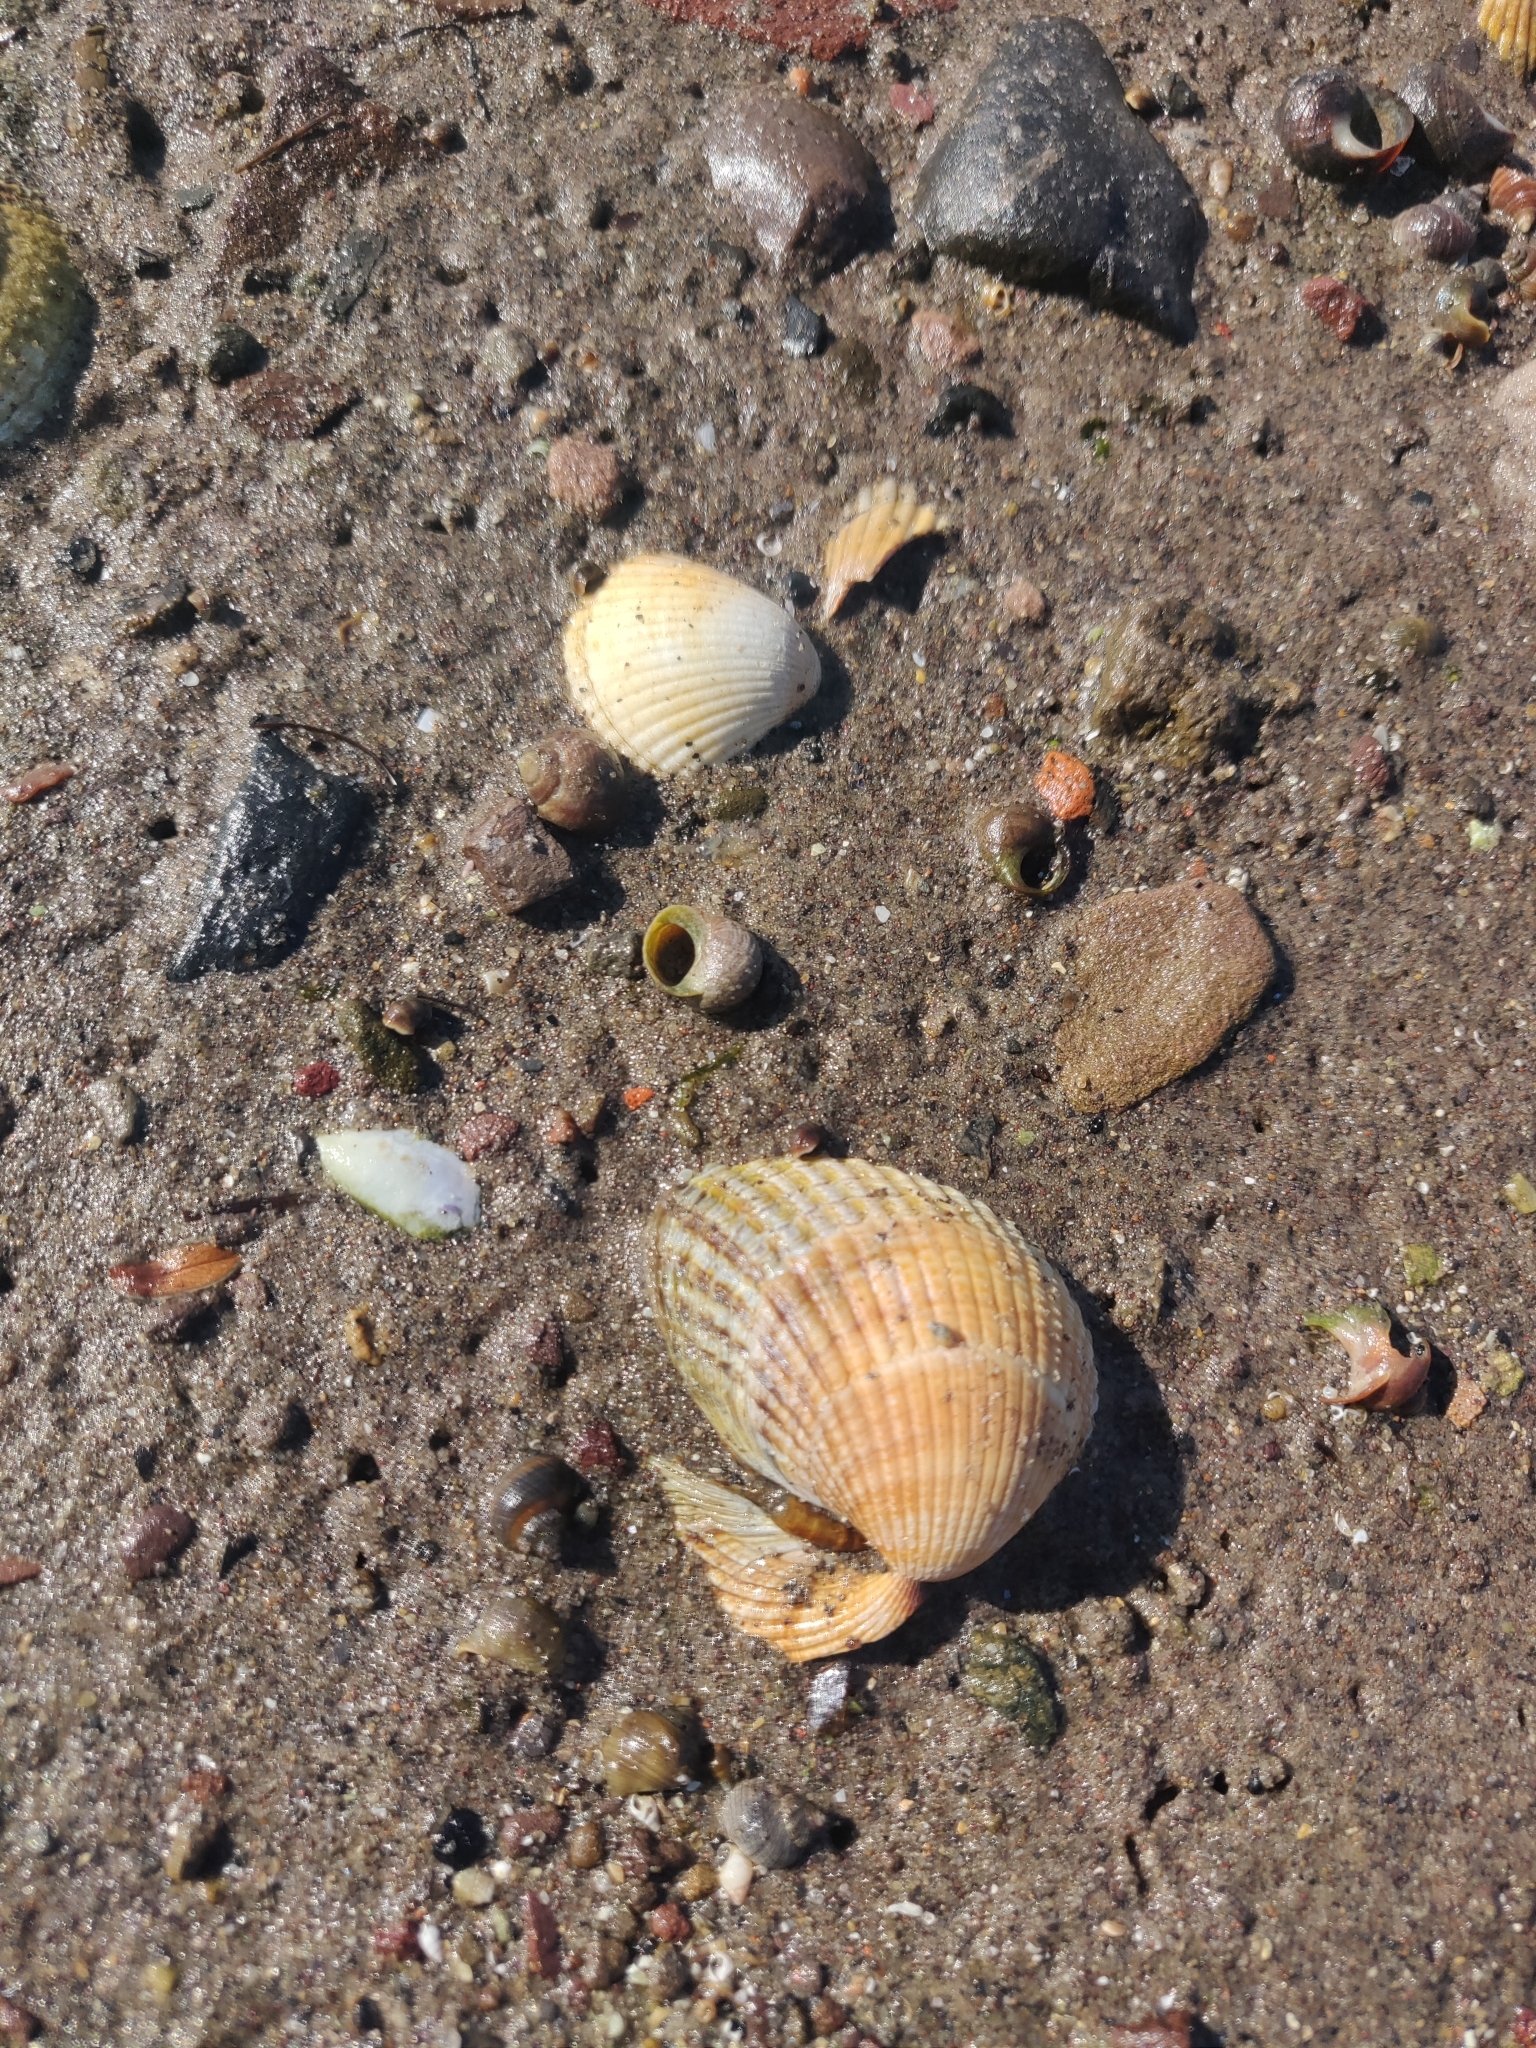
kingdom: Animalia
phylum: Mollusca
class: Bivalvia
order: Cardiida
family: Cardiidae
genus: Cerastoderma
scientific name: Cerastoderma edule
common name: Common cockle
